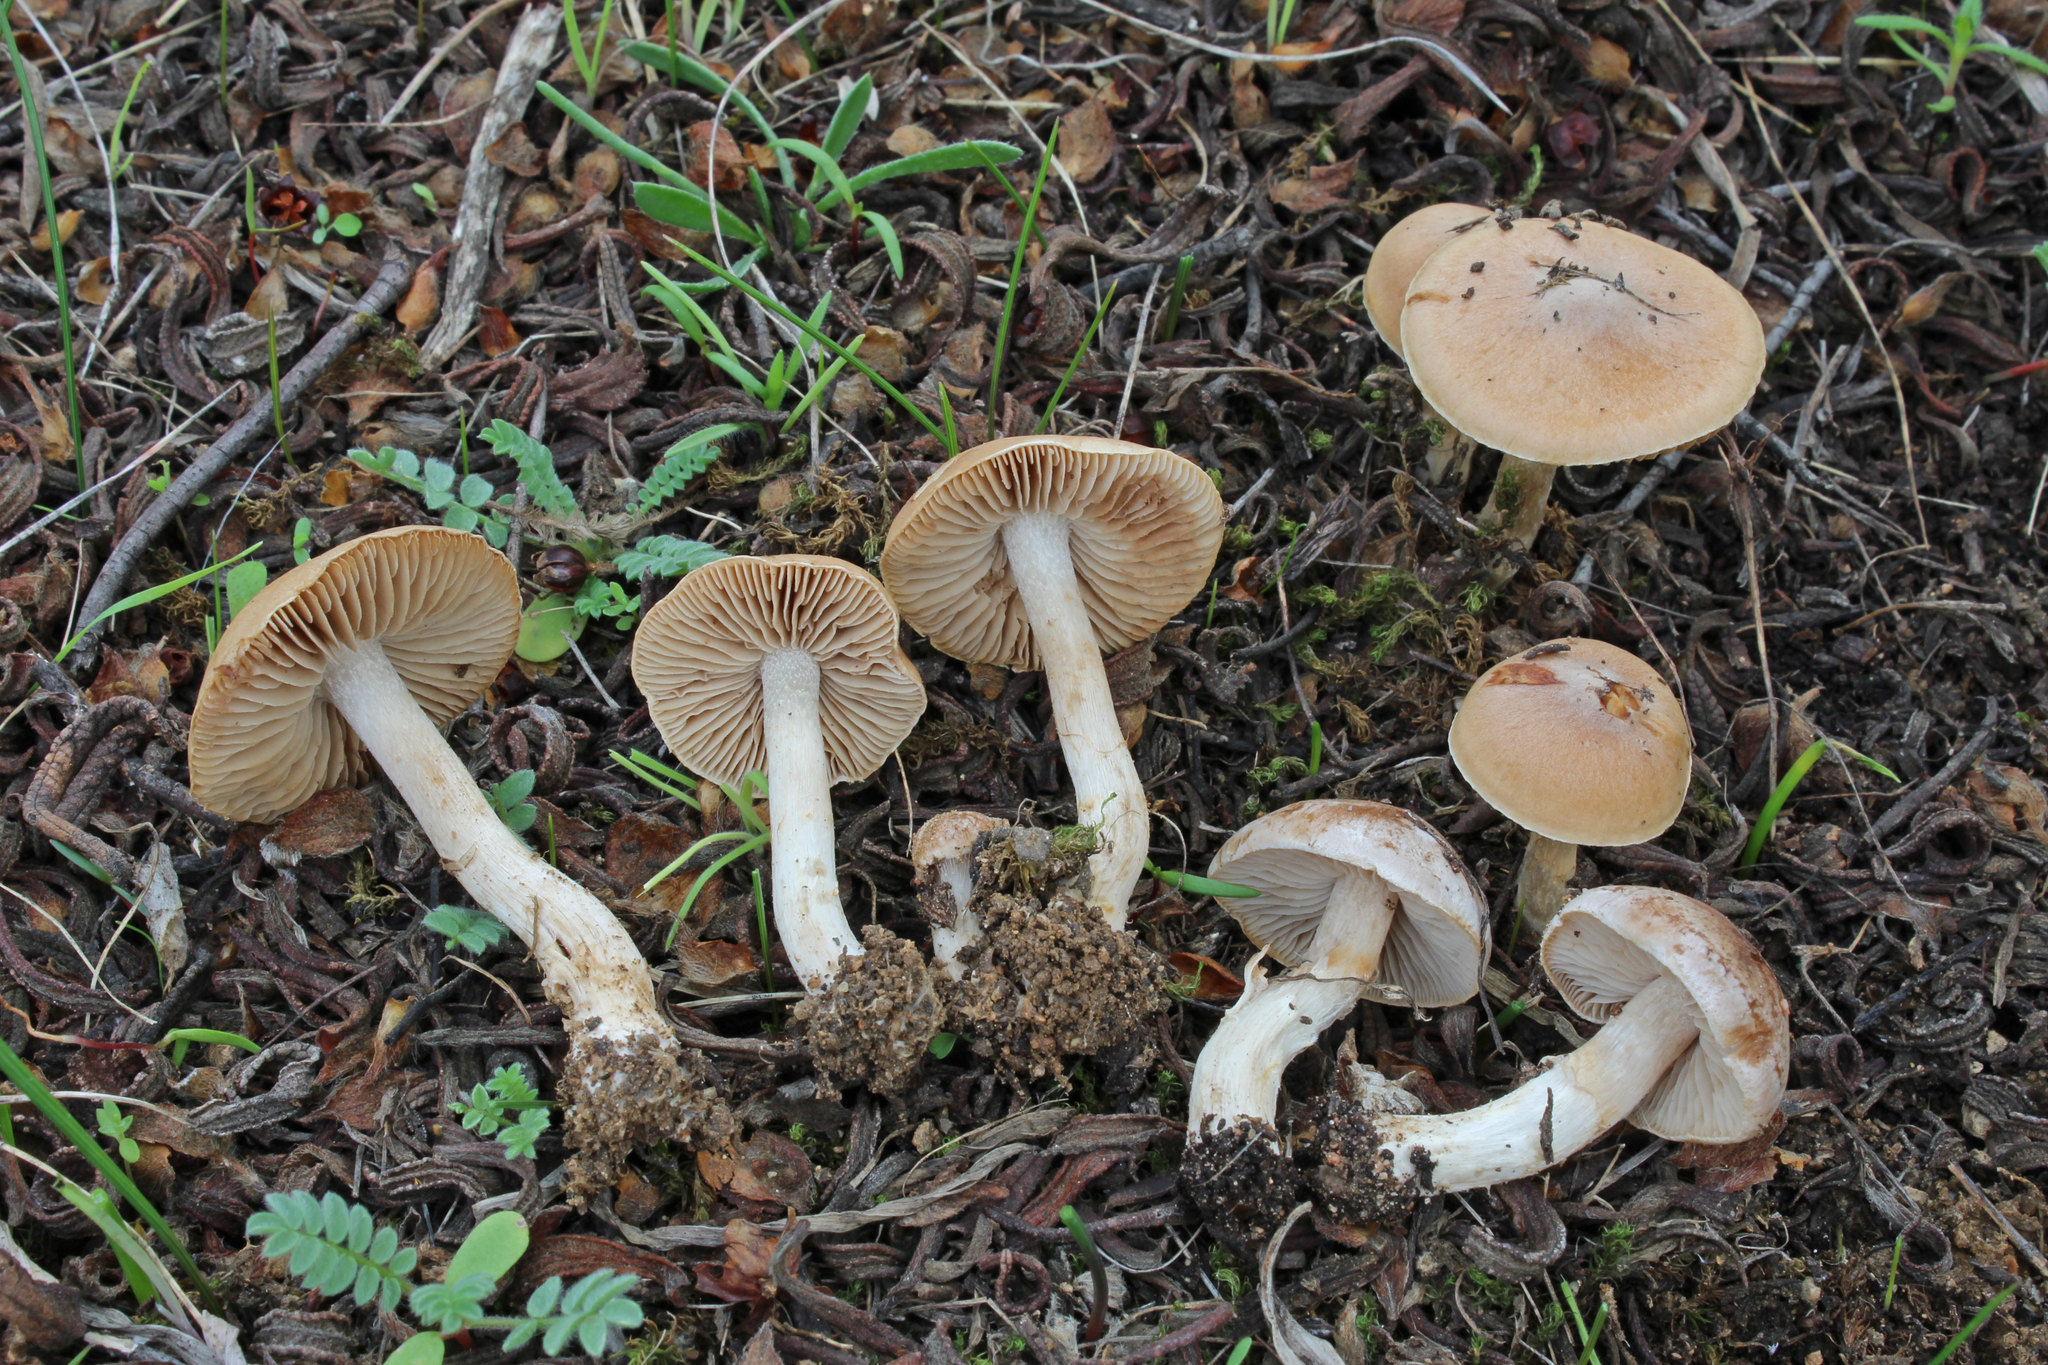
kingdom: Fungi
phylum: Basidiomycota
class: Agaricomycetes
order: Agaricales
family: Hymenogastraceae
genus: Hebeloma
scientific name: Hebeloma cistophilum
